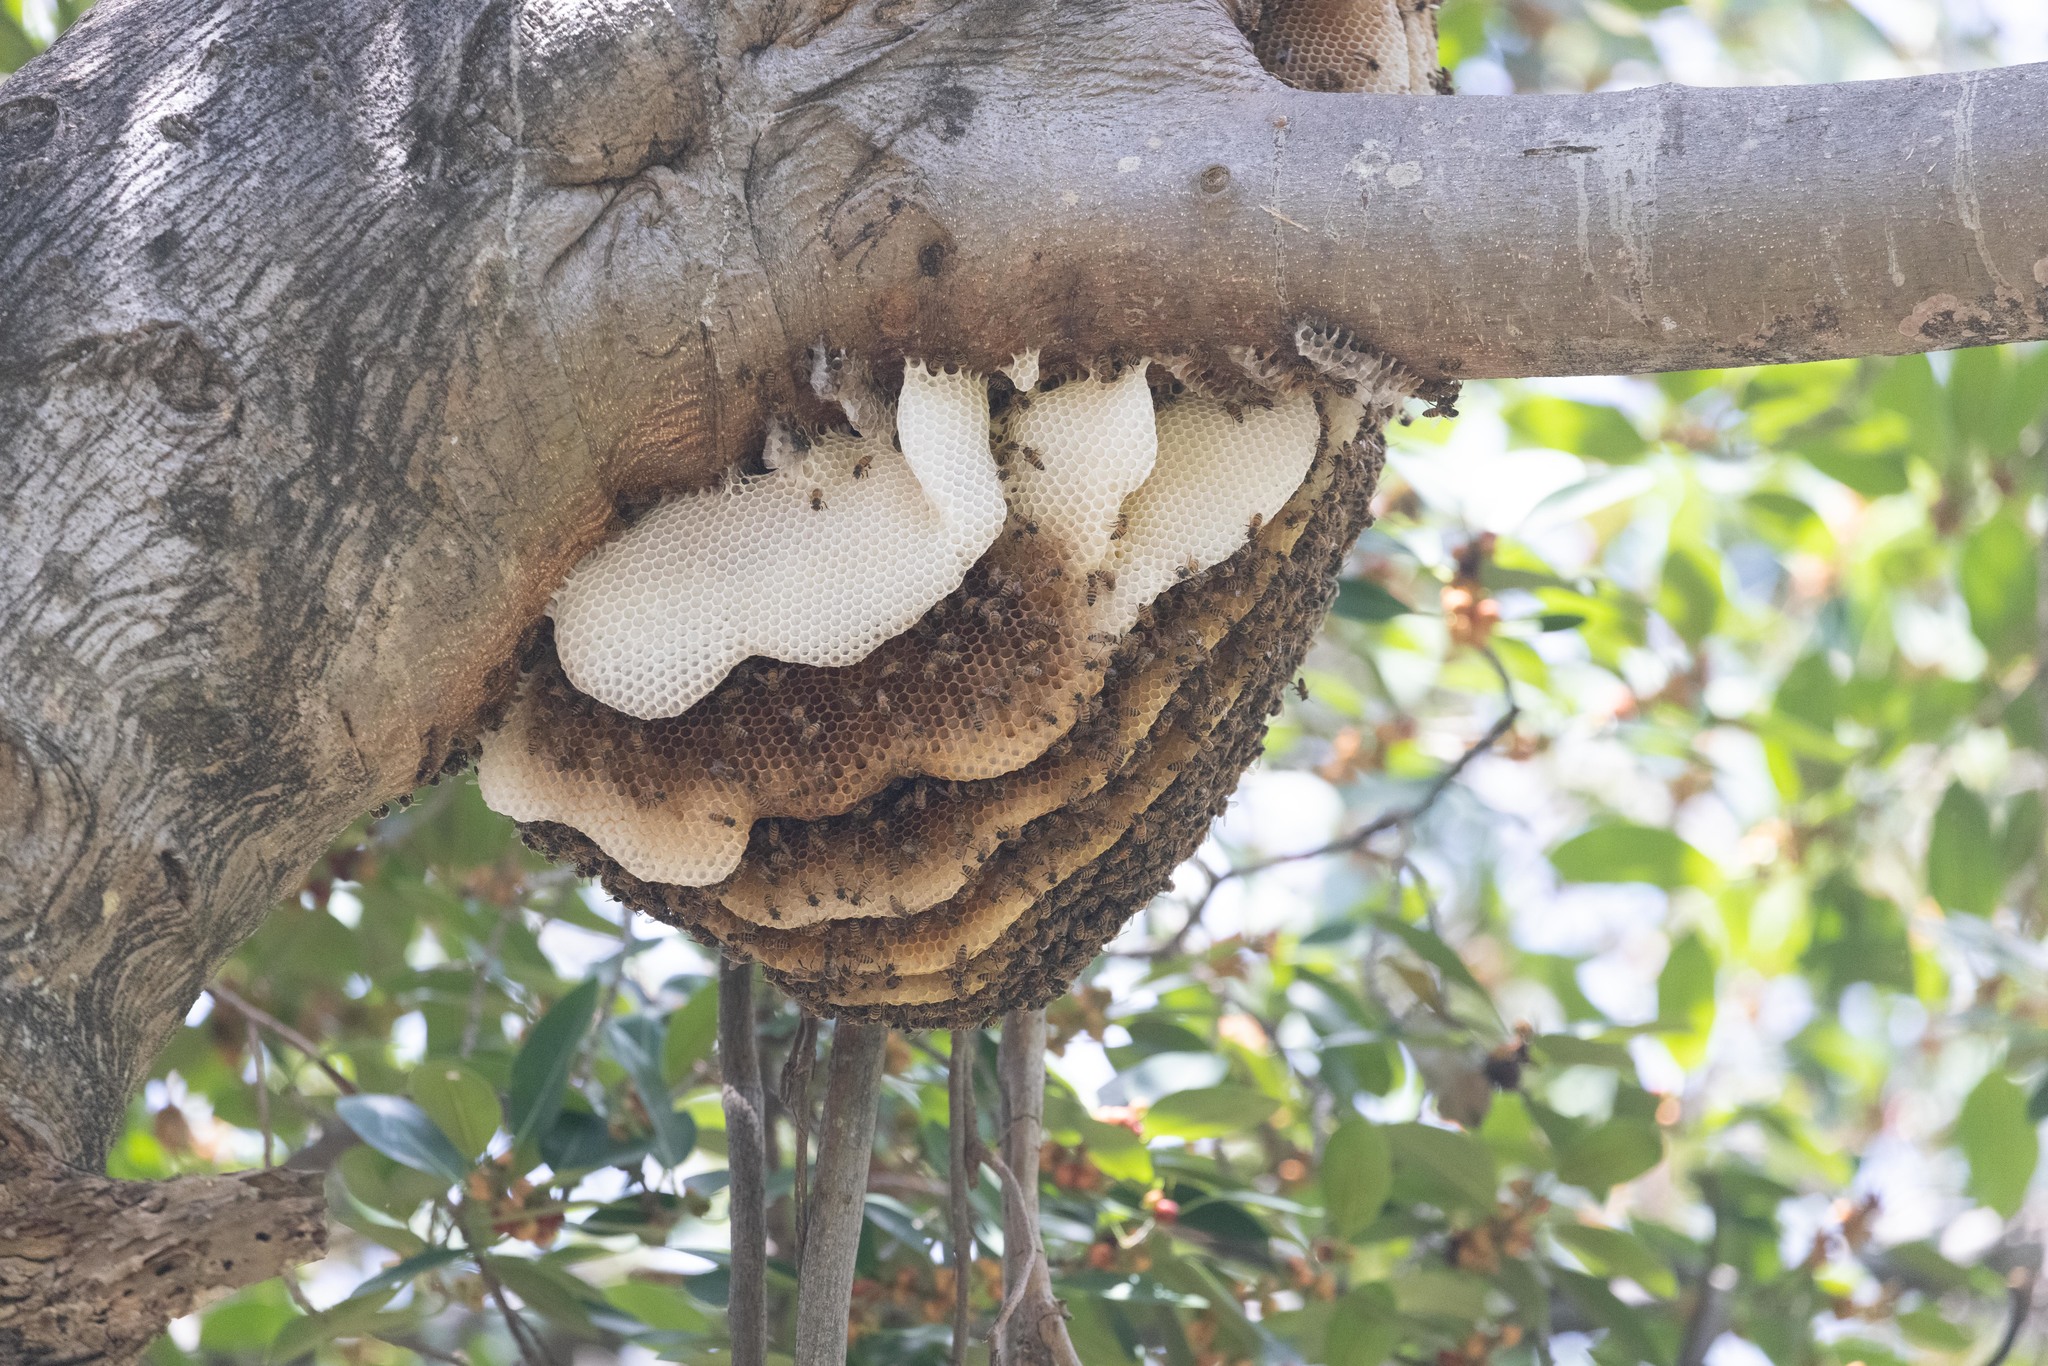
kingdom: Animalia
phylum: Arthropoda
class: Insecta
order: Hymenoptera
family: Apidae
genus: Apis
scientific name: Apis mellifera
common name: Honey bee
